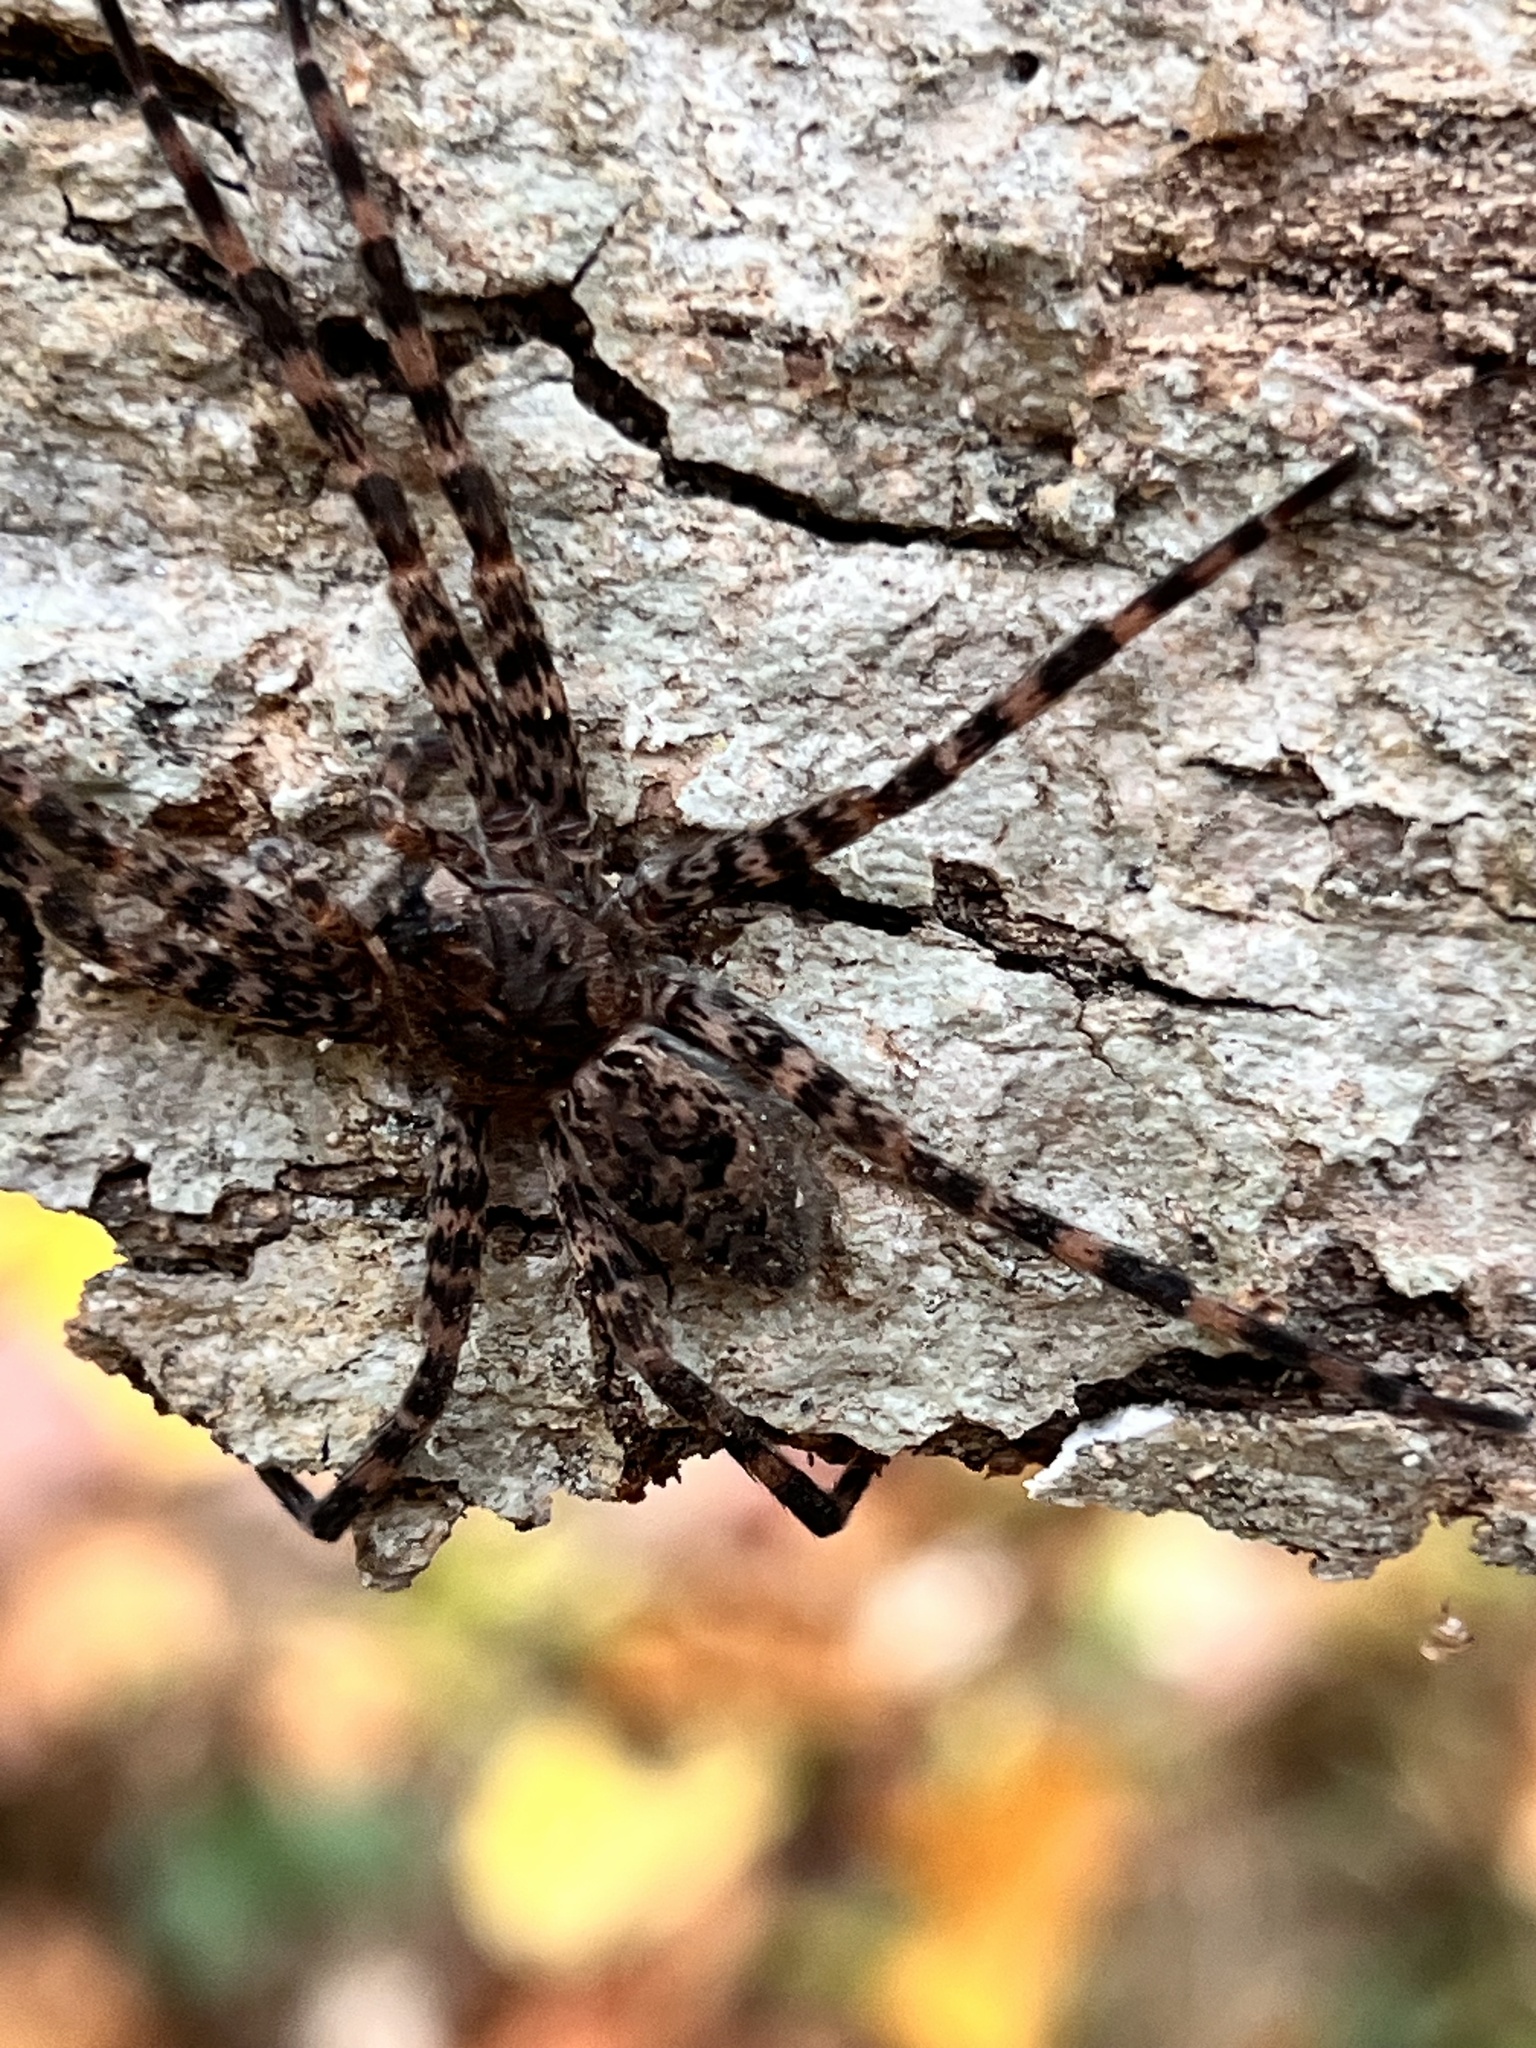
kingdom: Animalia
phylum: Arthropoda
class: Arachnida
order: Araneae
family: Pisauridae
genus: Dolomedes
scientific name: Dolomedes tenebrosus
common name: Dark fishing spider
